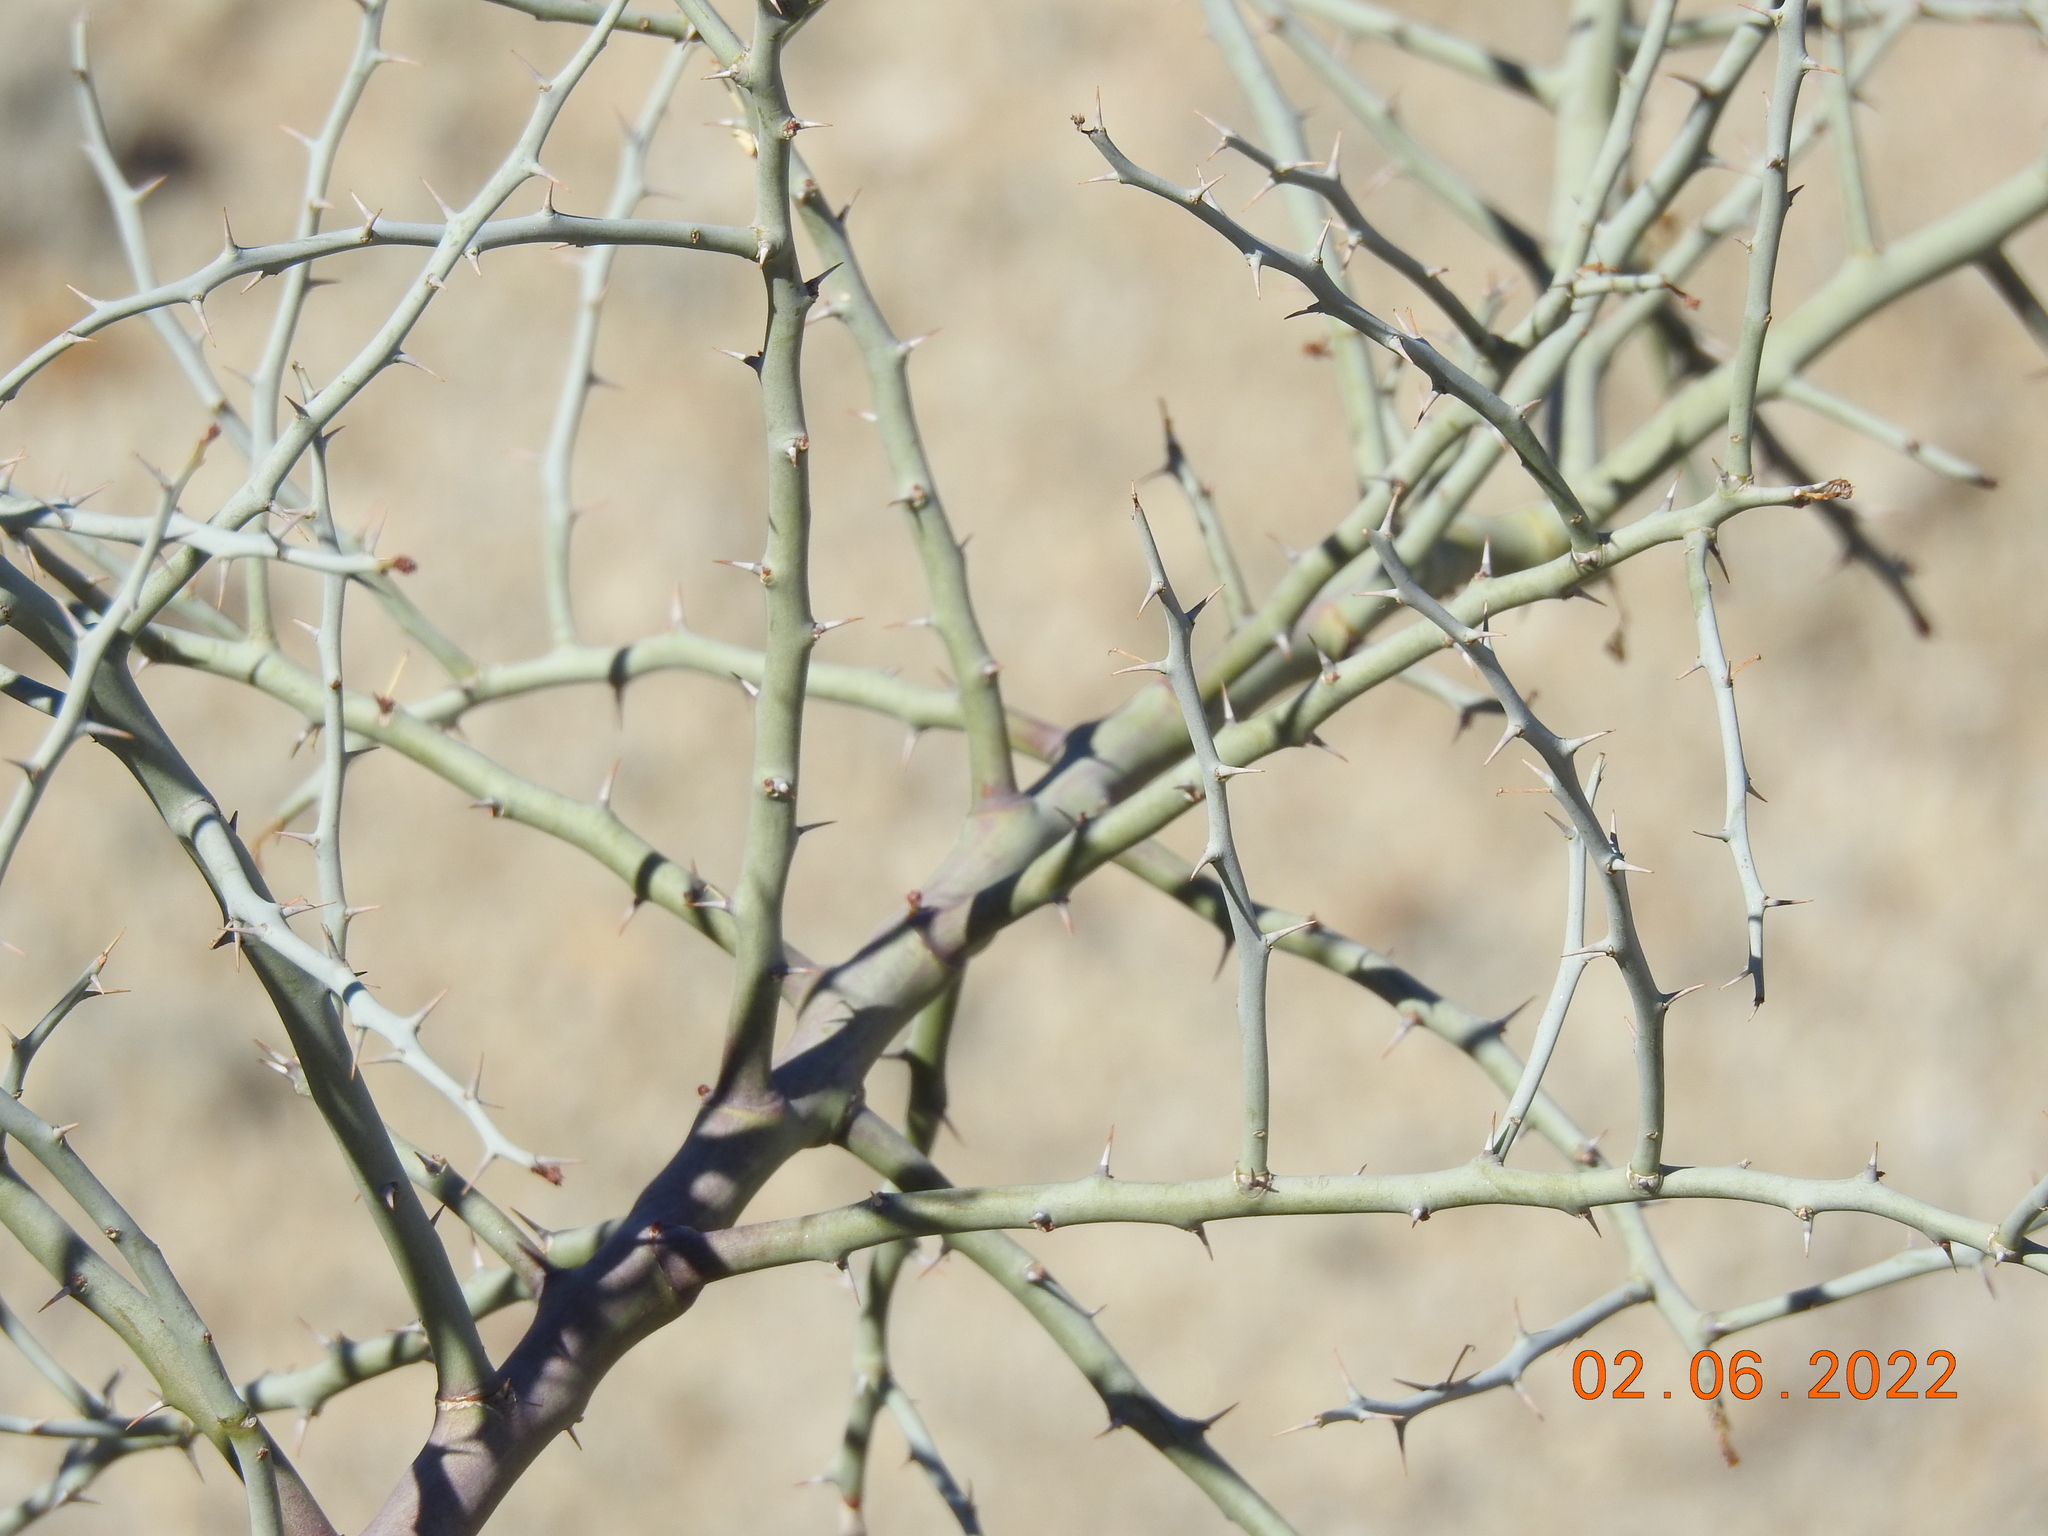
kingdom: Plantae
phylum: Tracheophyta
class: Magnoliopsida
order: Fabales
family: Fabaceae
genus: Parkinsonia
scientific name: Parkinsonia florida
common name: Blue paloverde
